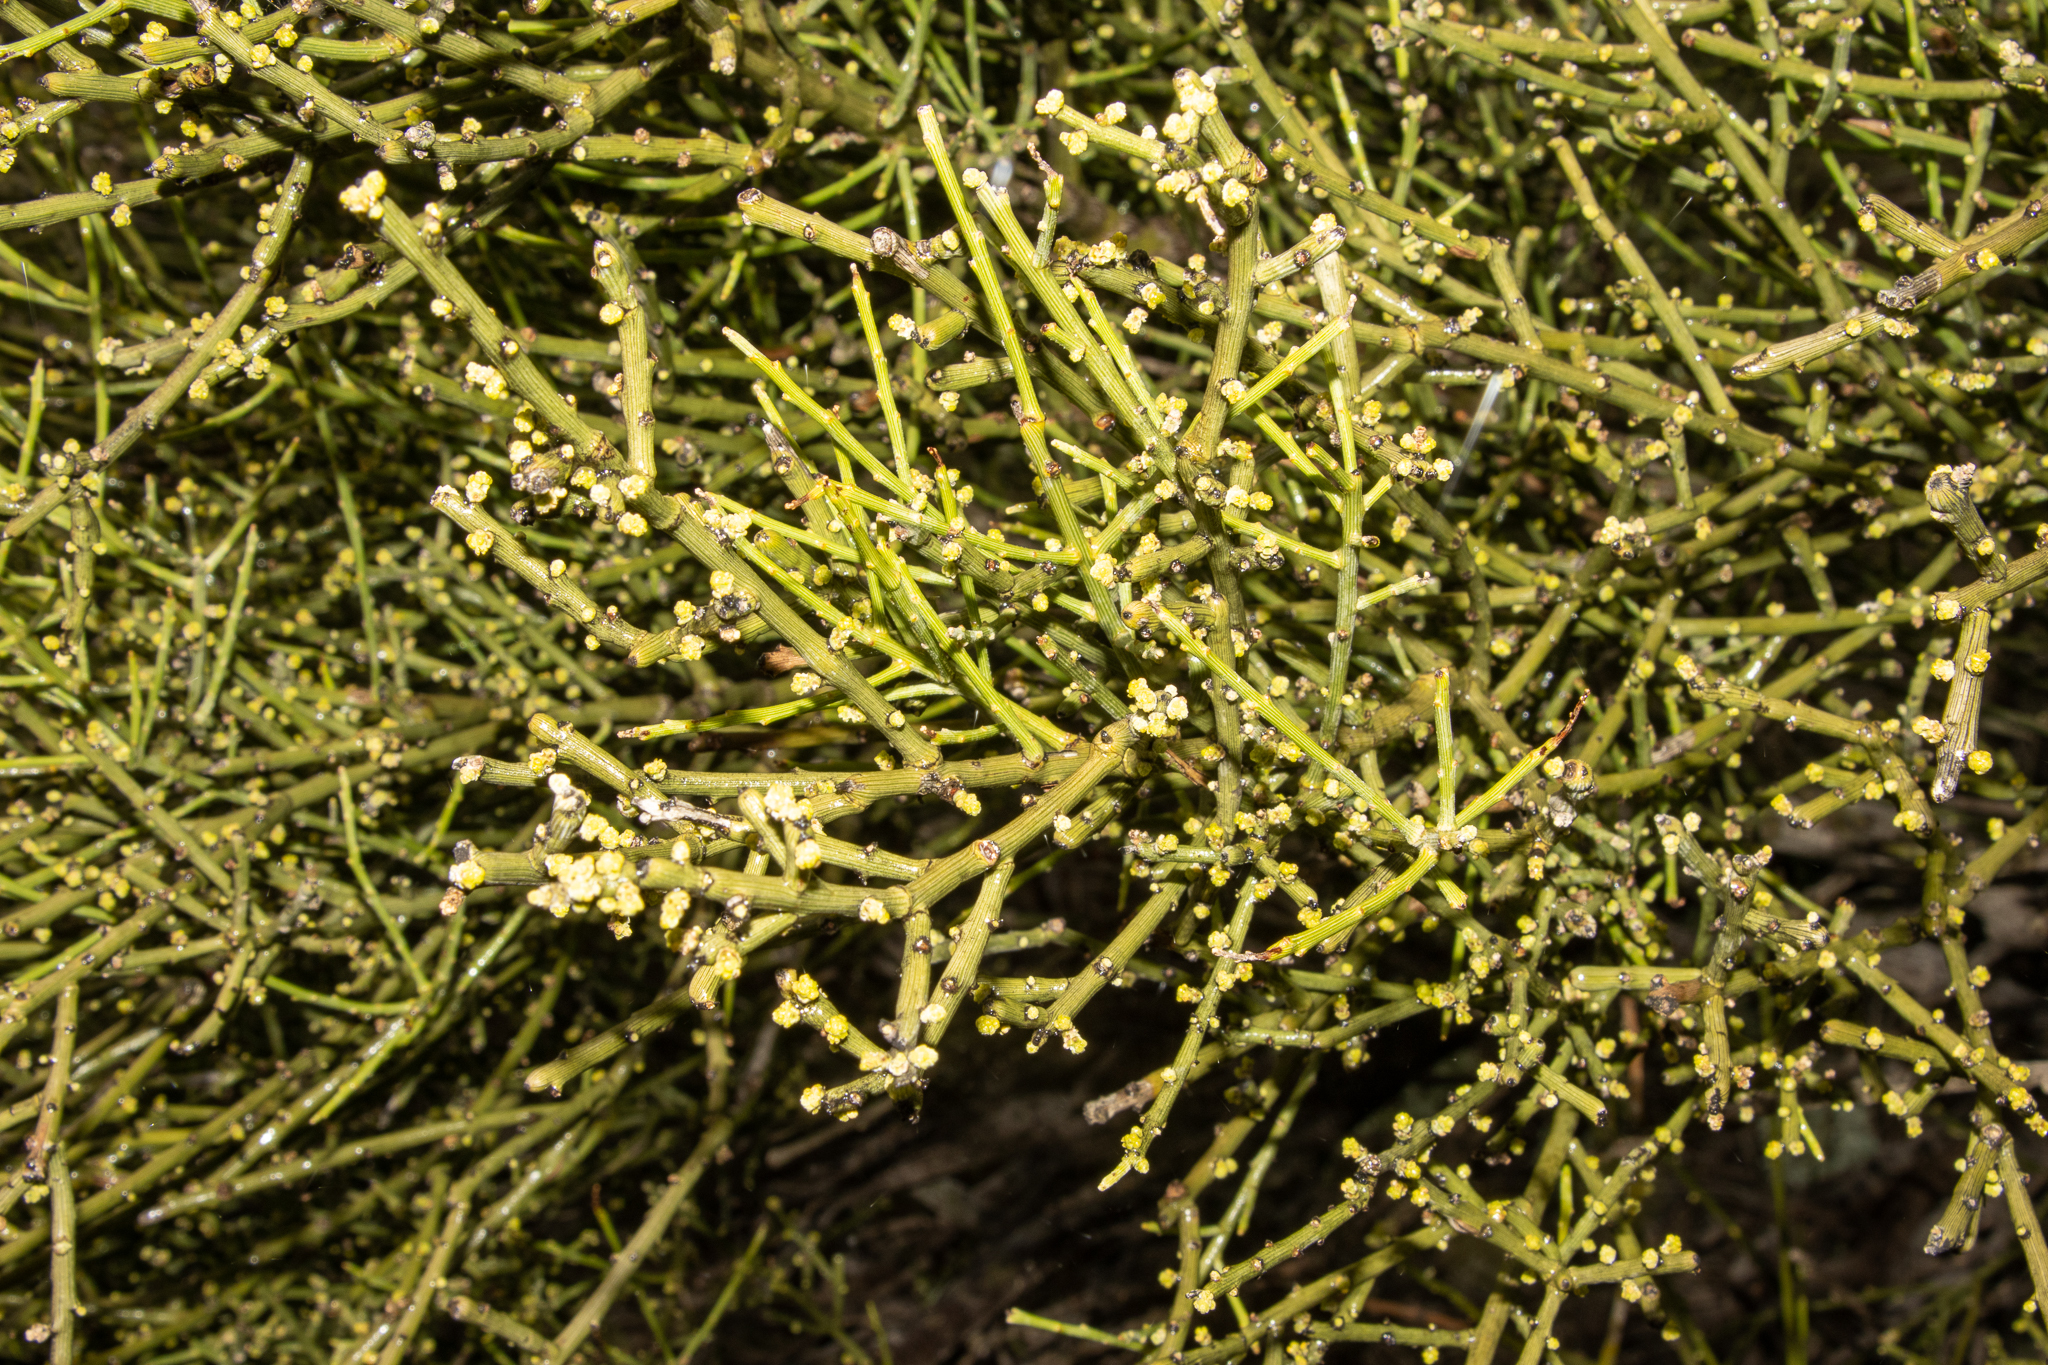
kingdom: Plantae
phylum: Tracheophyta
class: Magnoliopsida
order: Santalales
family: Santalaceae
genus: Exocarpos
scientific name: Exocarpos aphyllus
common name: Leafless ballart
